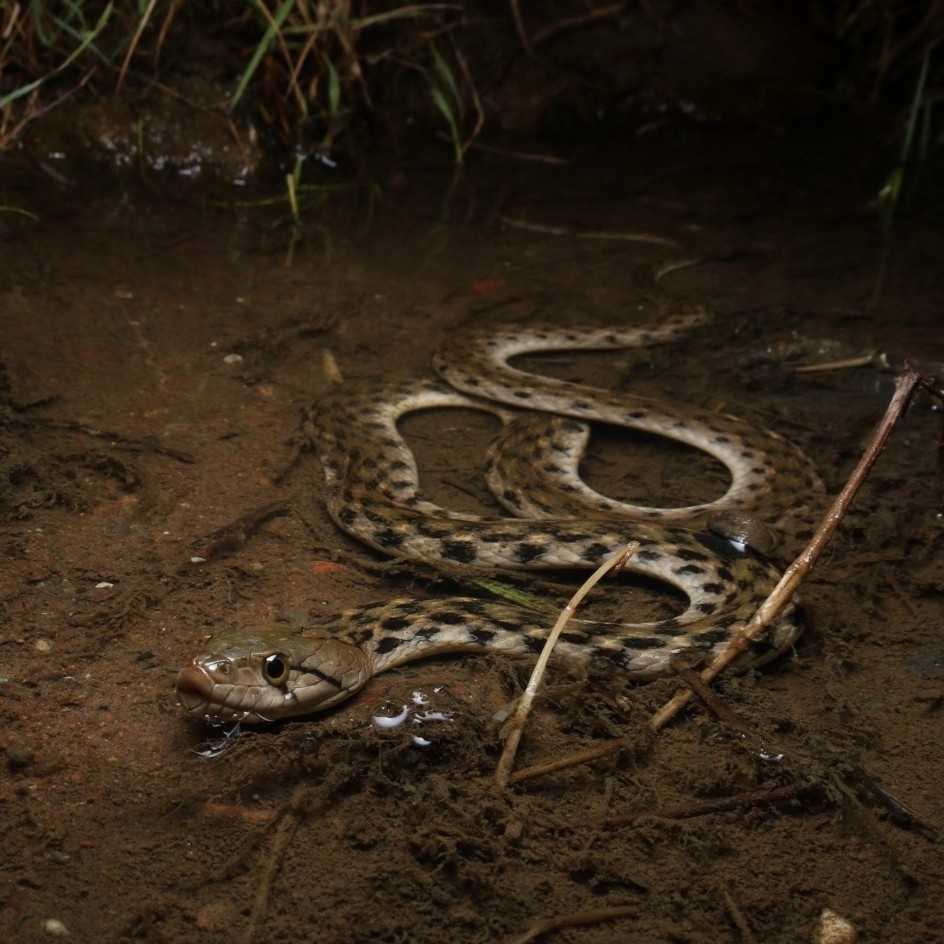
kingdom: Animalia
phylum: Chordata
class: Squamata
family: Colubridae
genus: Fowlea
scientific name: Fowlea piscator
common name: Asiatic water snake
